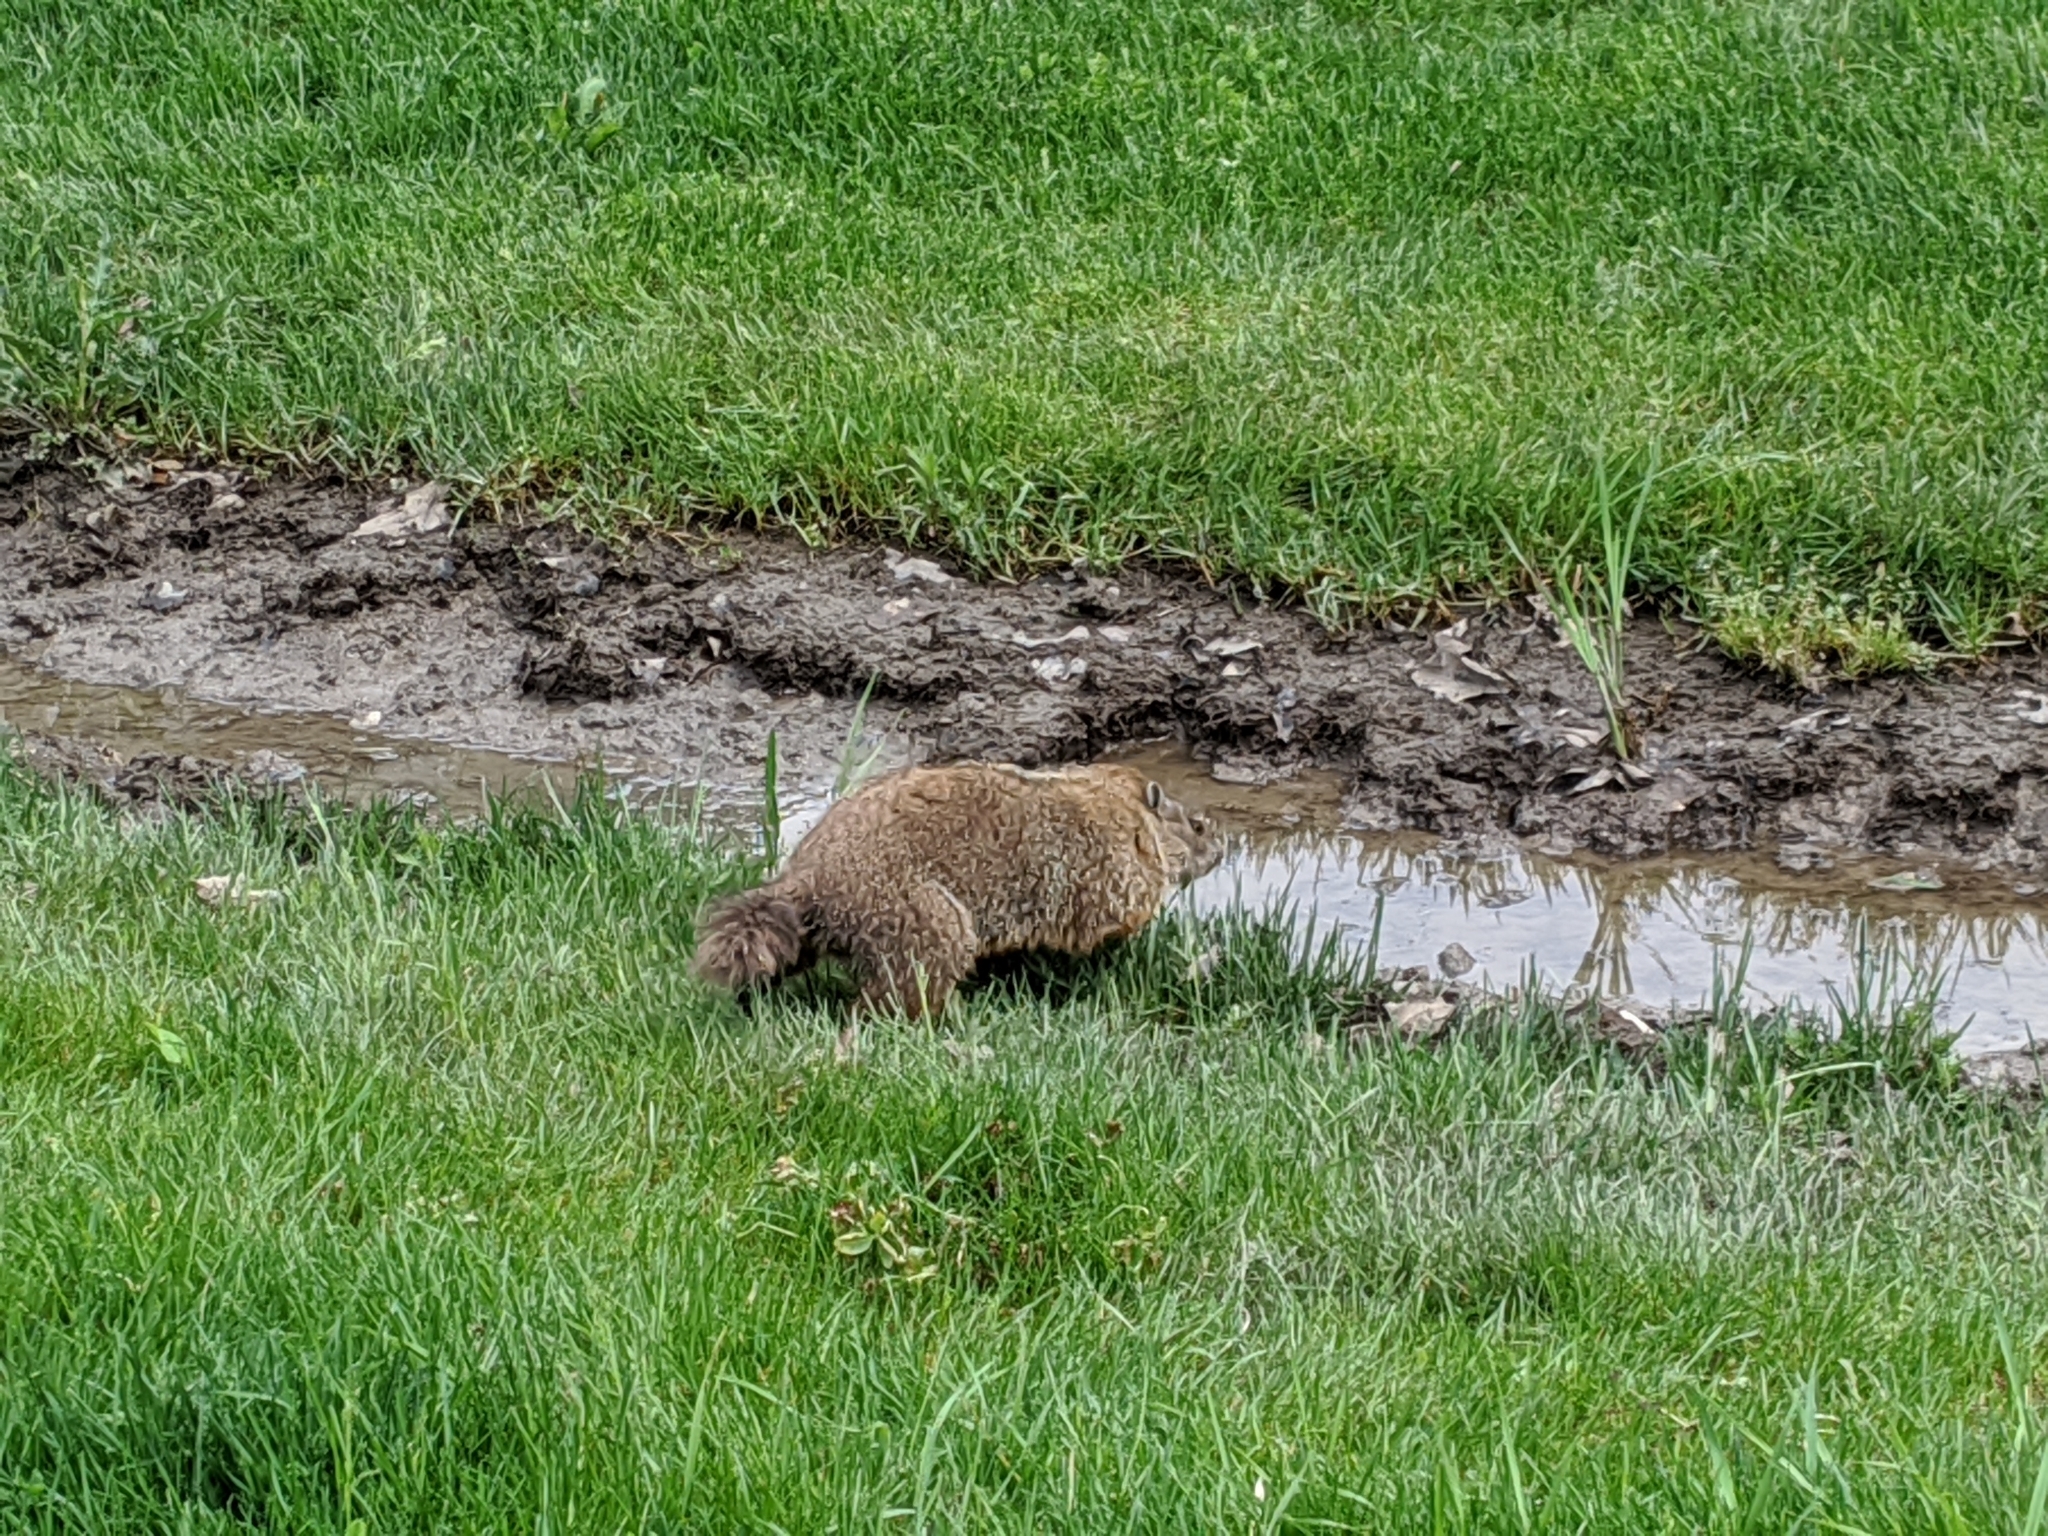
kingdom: Animalia
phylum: Chordata
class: Mammalia
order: Rodentia
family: Sciuridae
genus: Marmota
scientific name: Marmota monax
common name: Groundhog
